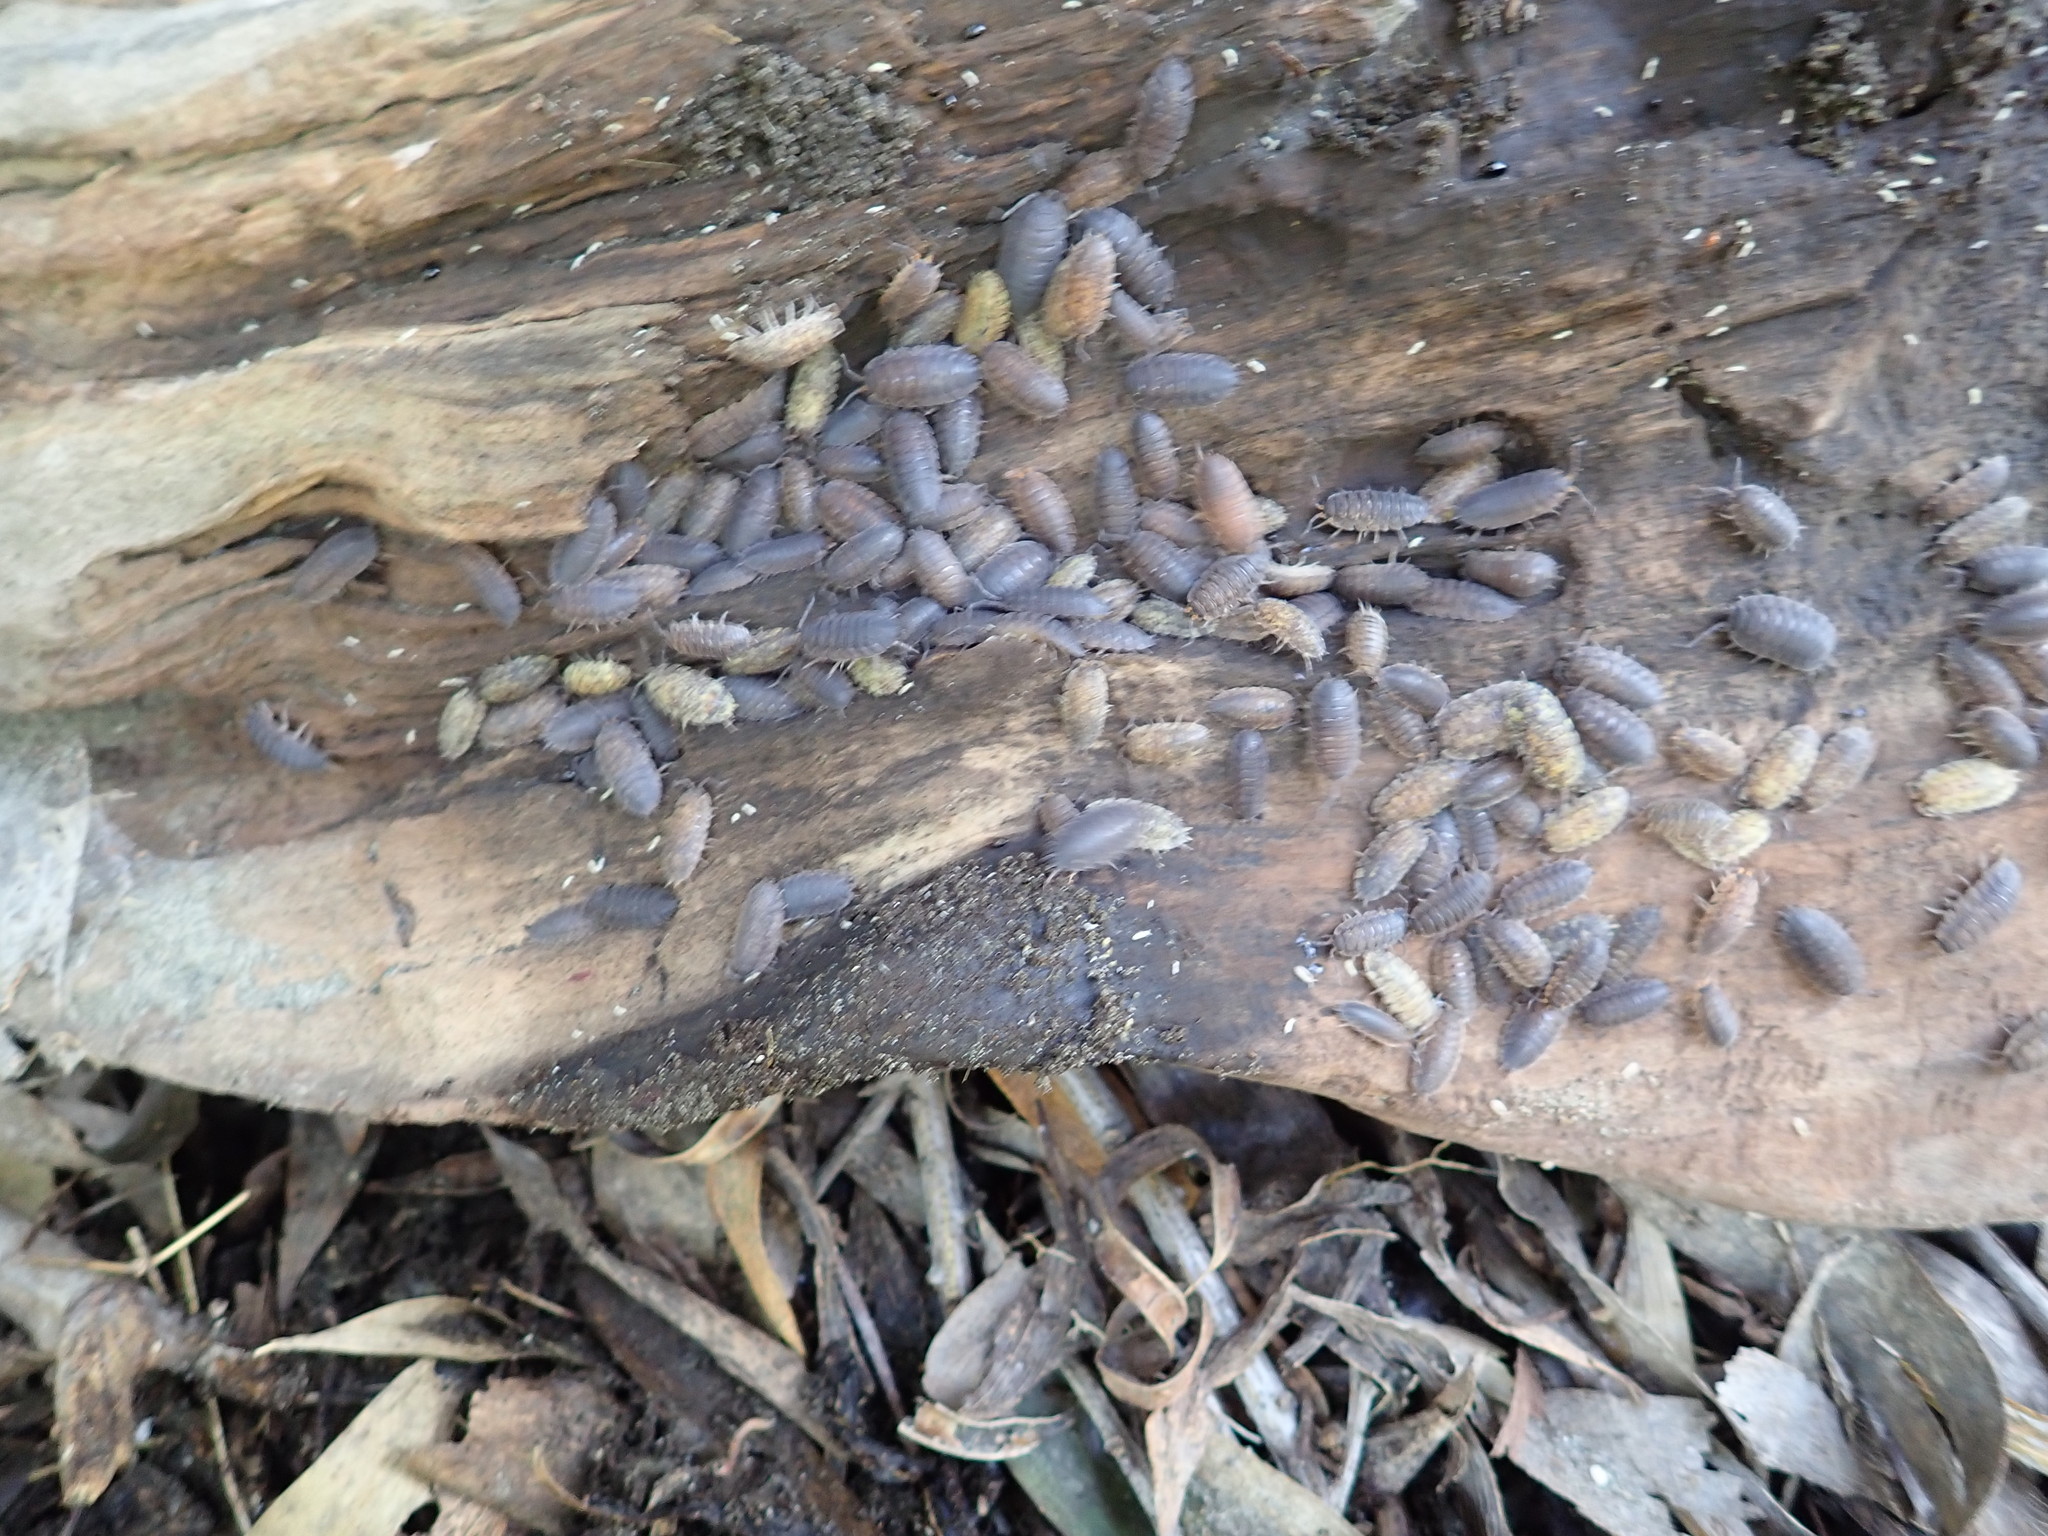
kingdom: Animalia
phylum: Arthropoda
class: Malacostraca
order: Isopoda
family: Porcellionidae
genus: Porcellio
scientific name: Porcellio scaber
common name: Common rough woodlouse
